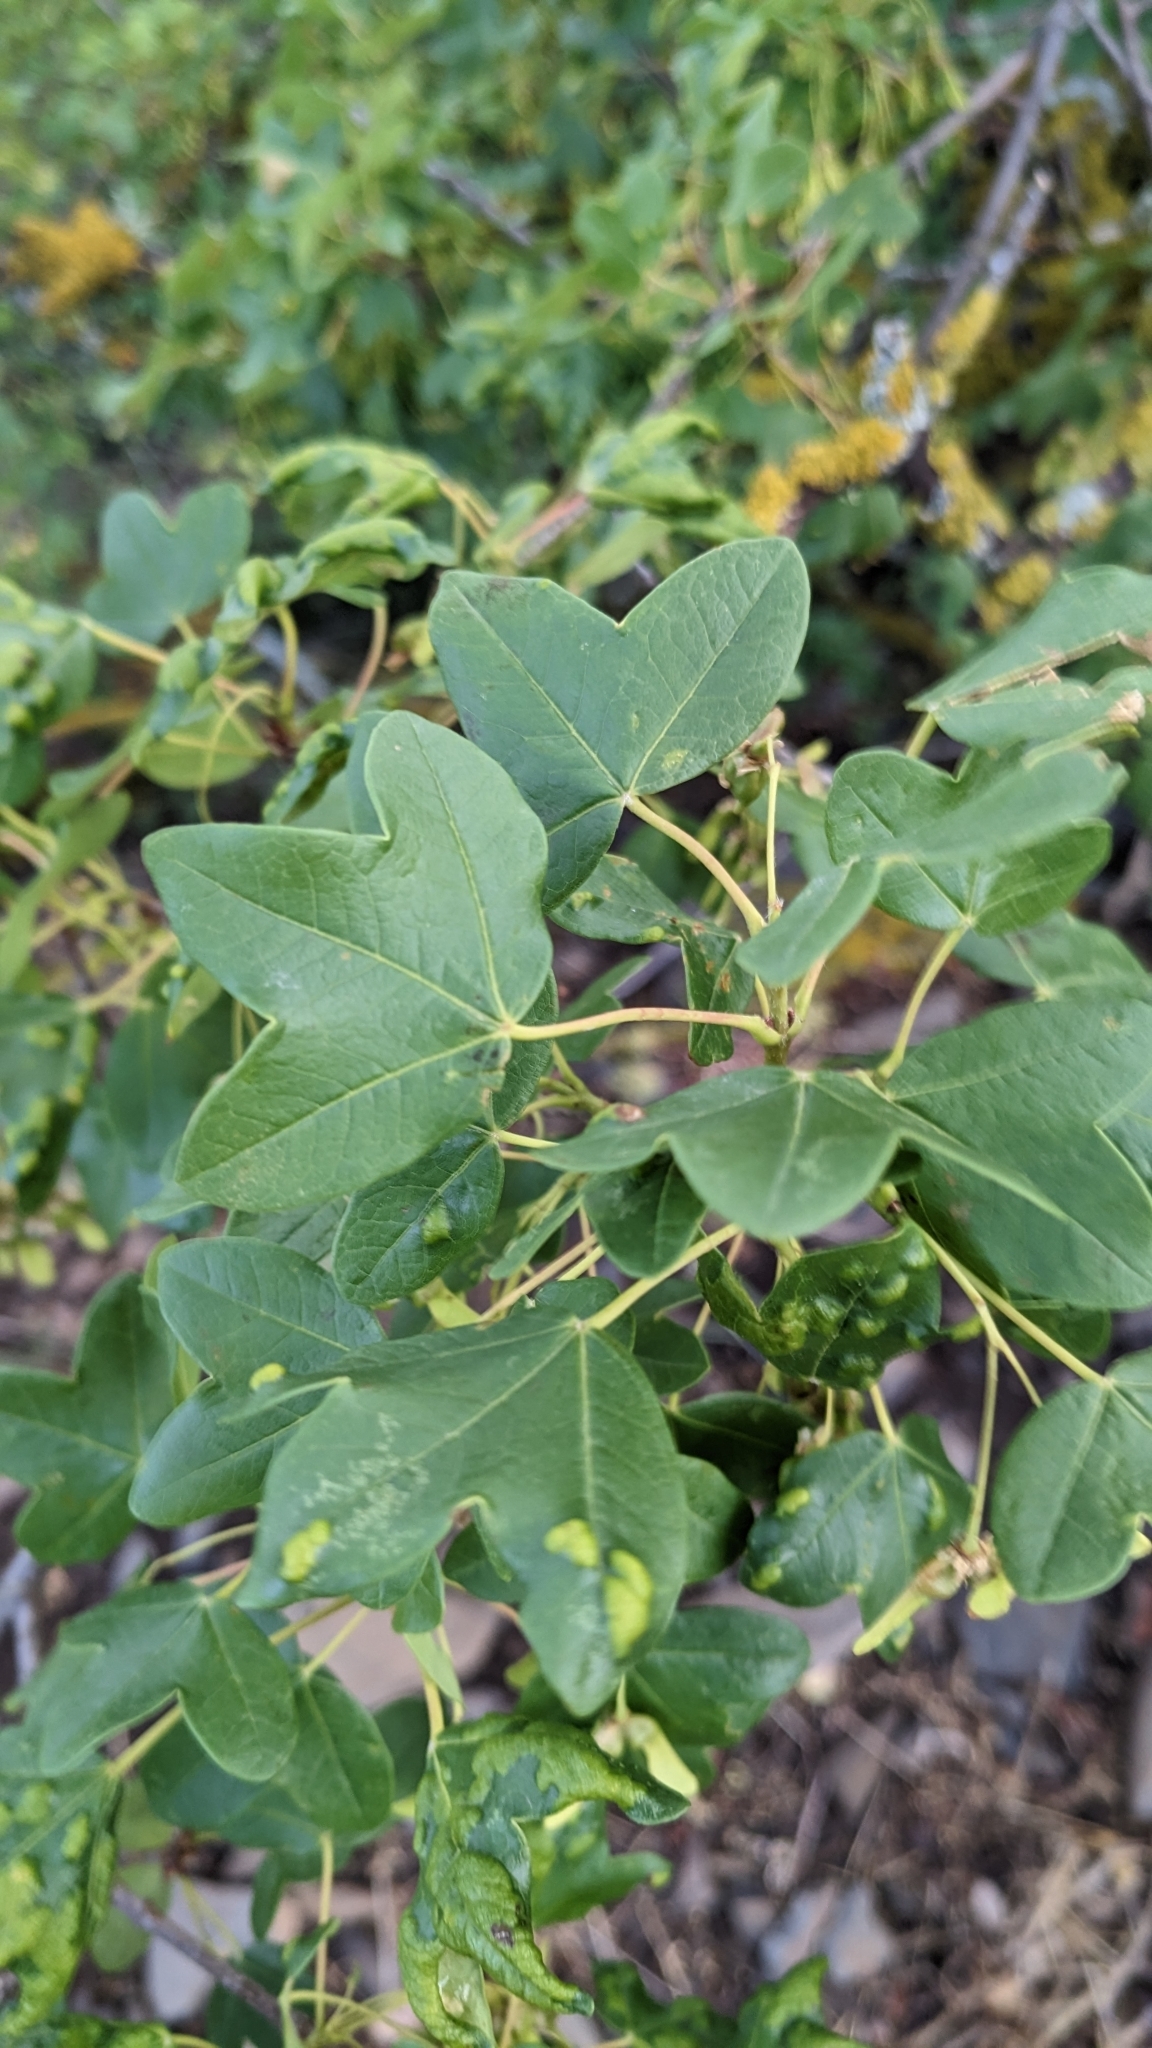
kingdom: Plantae
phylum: Tracheophyta
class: Magnoliopsida
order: Sapindales
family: Sapindaceae
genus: Acer
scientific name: Acer monspessulanum
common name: Montpellier maple
